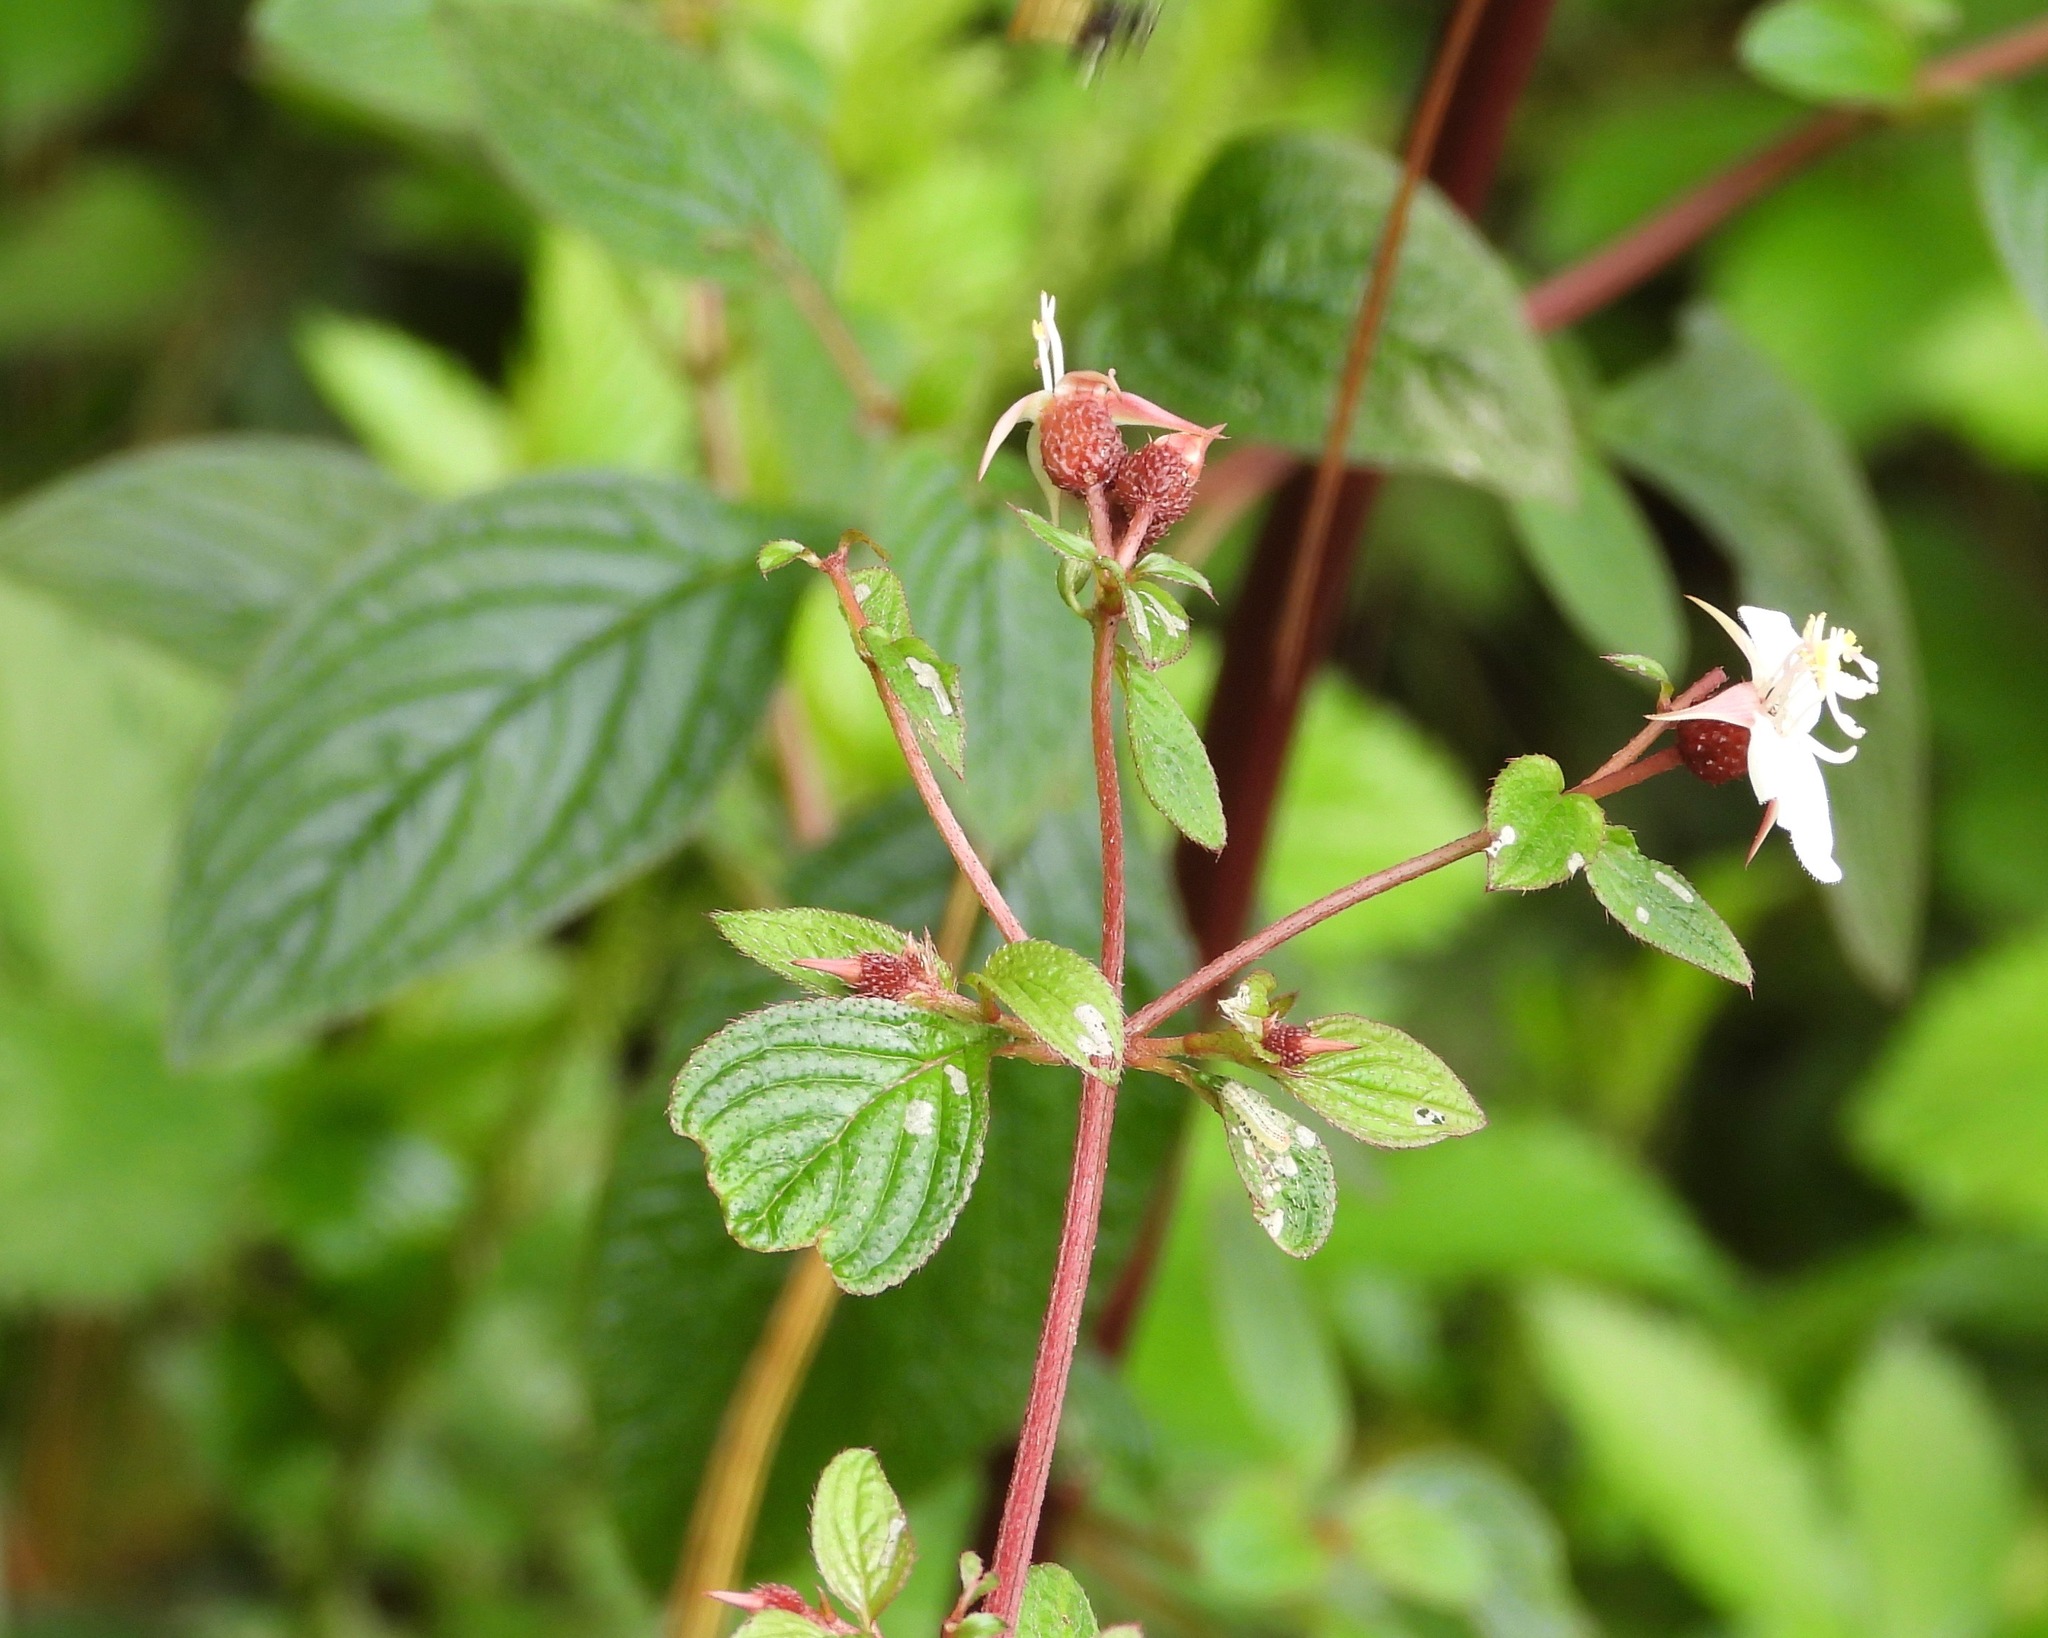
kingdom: Plantae
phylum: Tracheophyta
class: Magnoliopsida
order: Myrtales
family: Melastomataceae
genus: Heterocentron
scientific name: Heterocentron subtriplinervium
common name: Pearl flower
